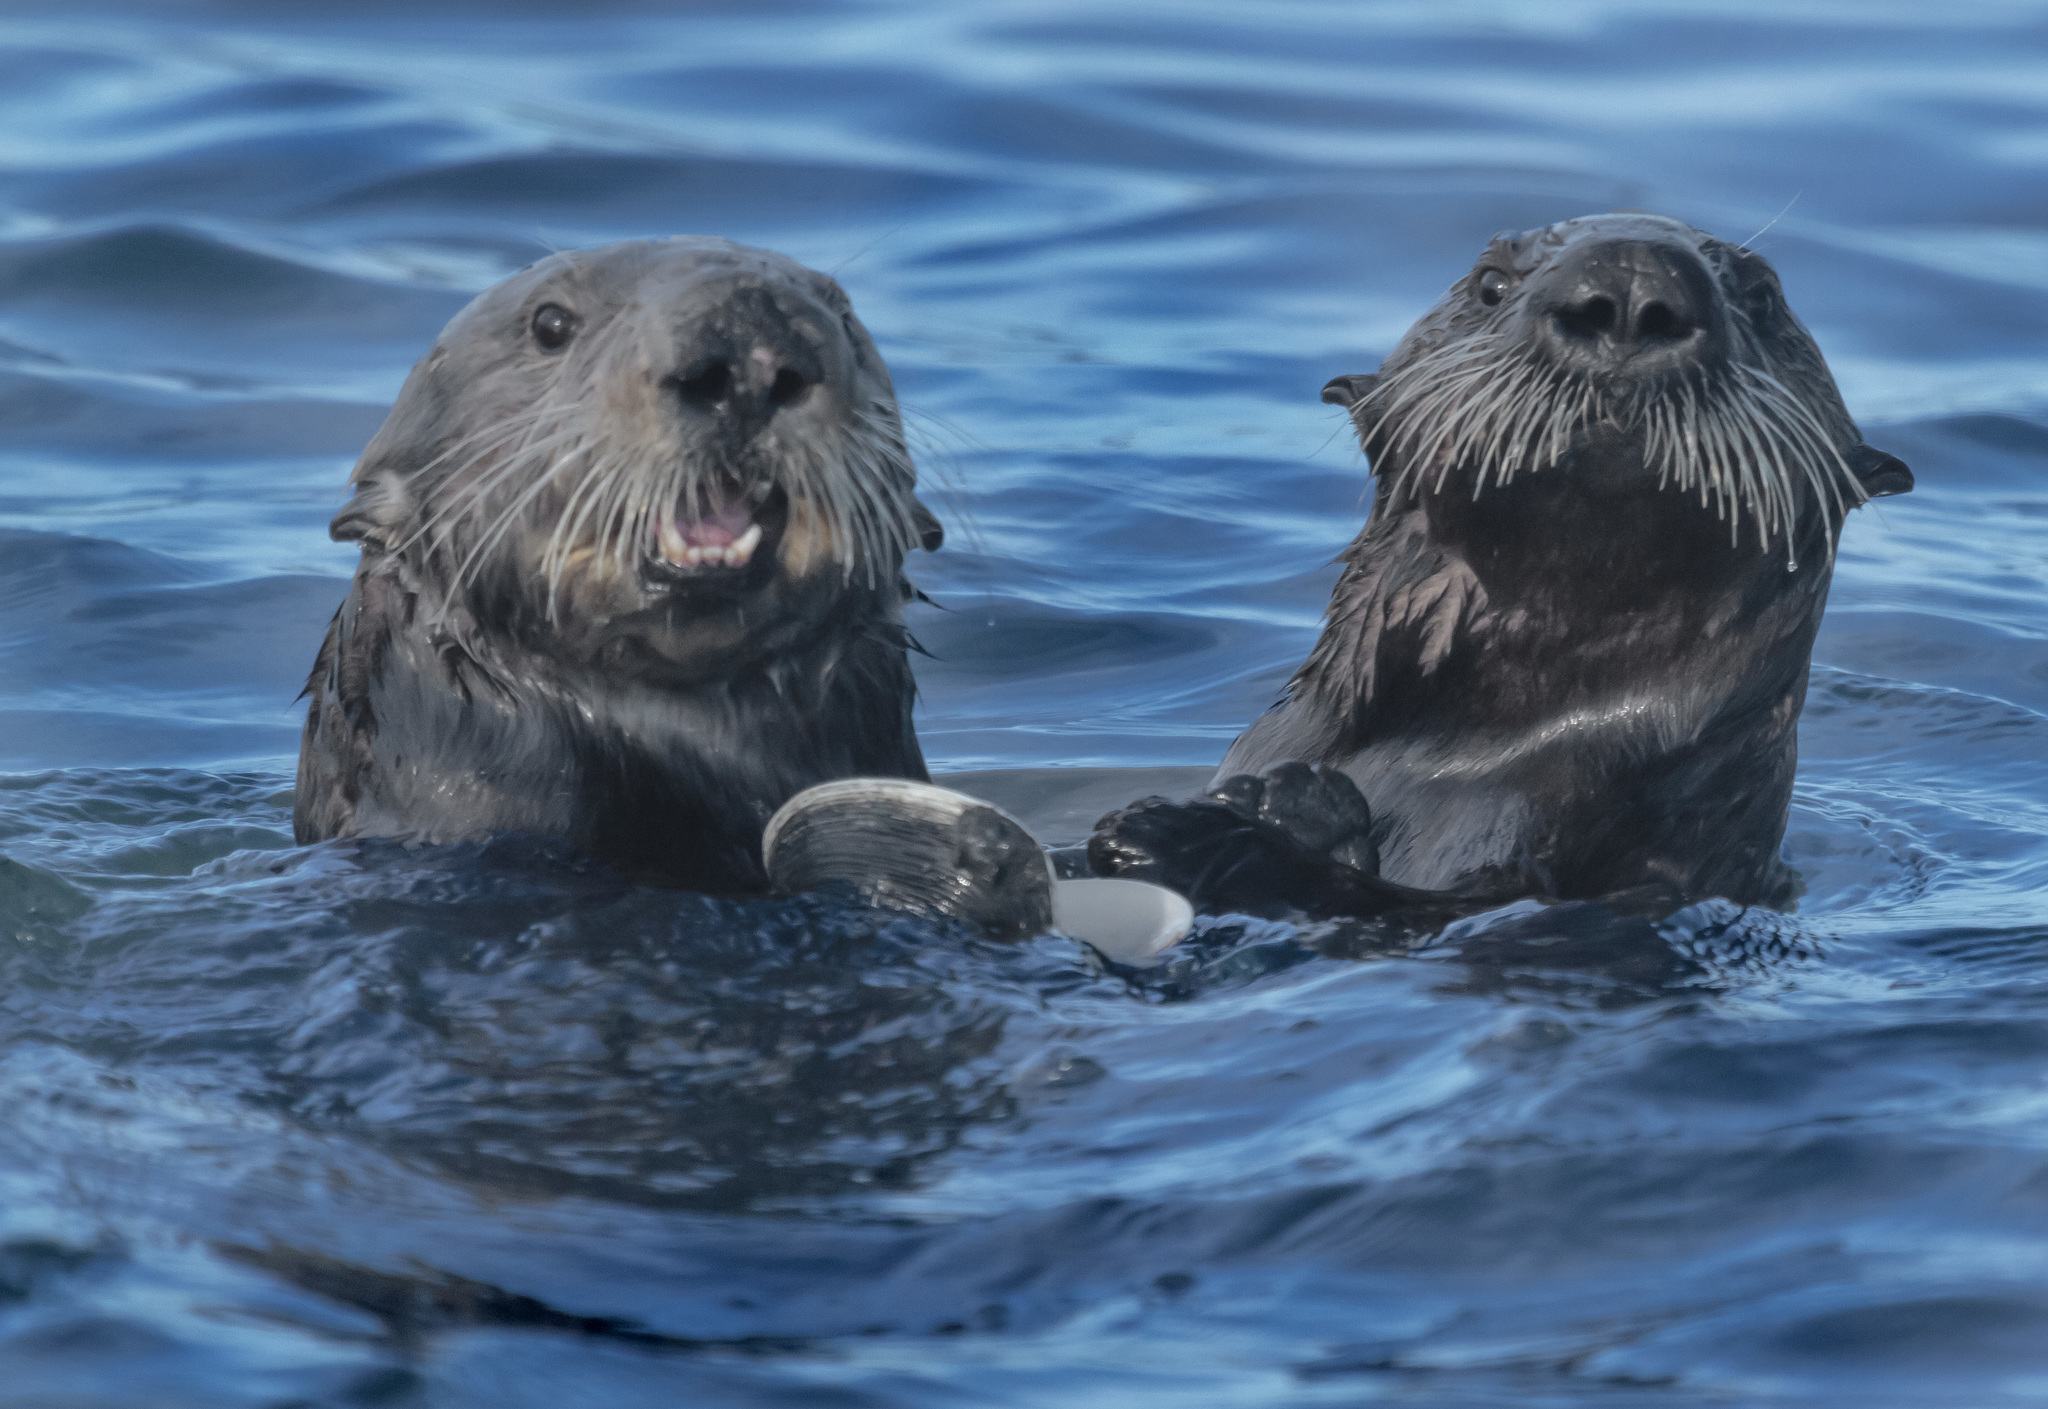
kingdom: Animalia
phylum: Chordata
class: Mammalia
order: Carnivora
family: Mustelidae
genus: Enhydra
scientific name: Enhydra lutris
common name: Sea otter
